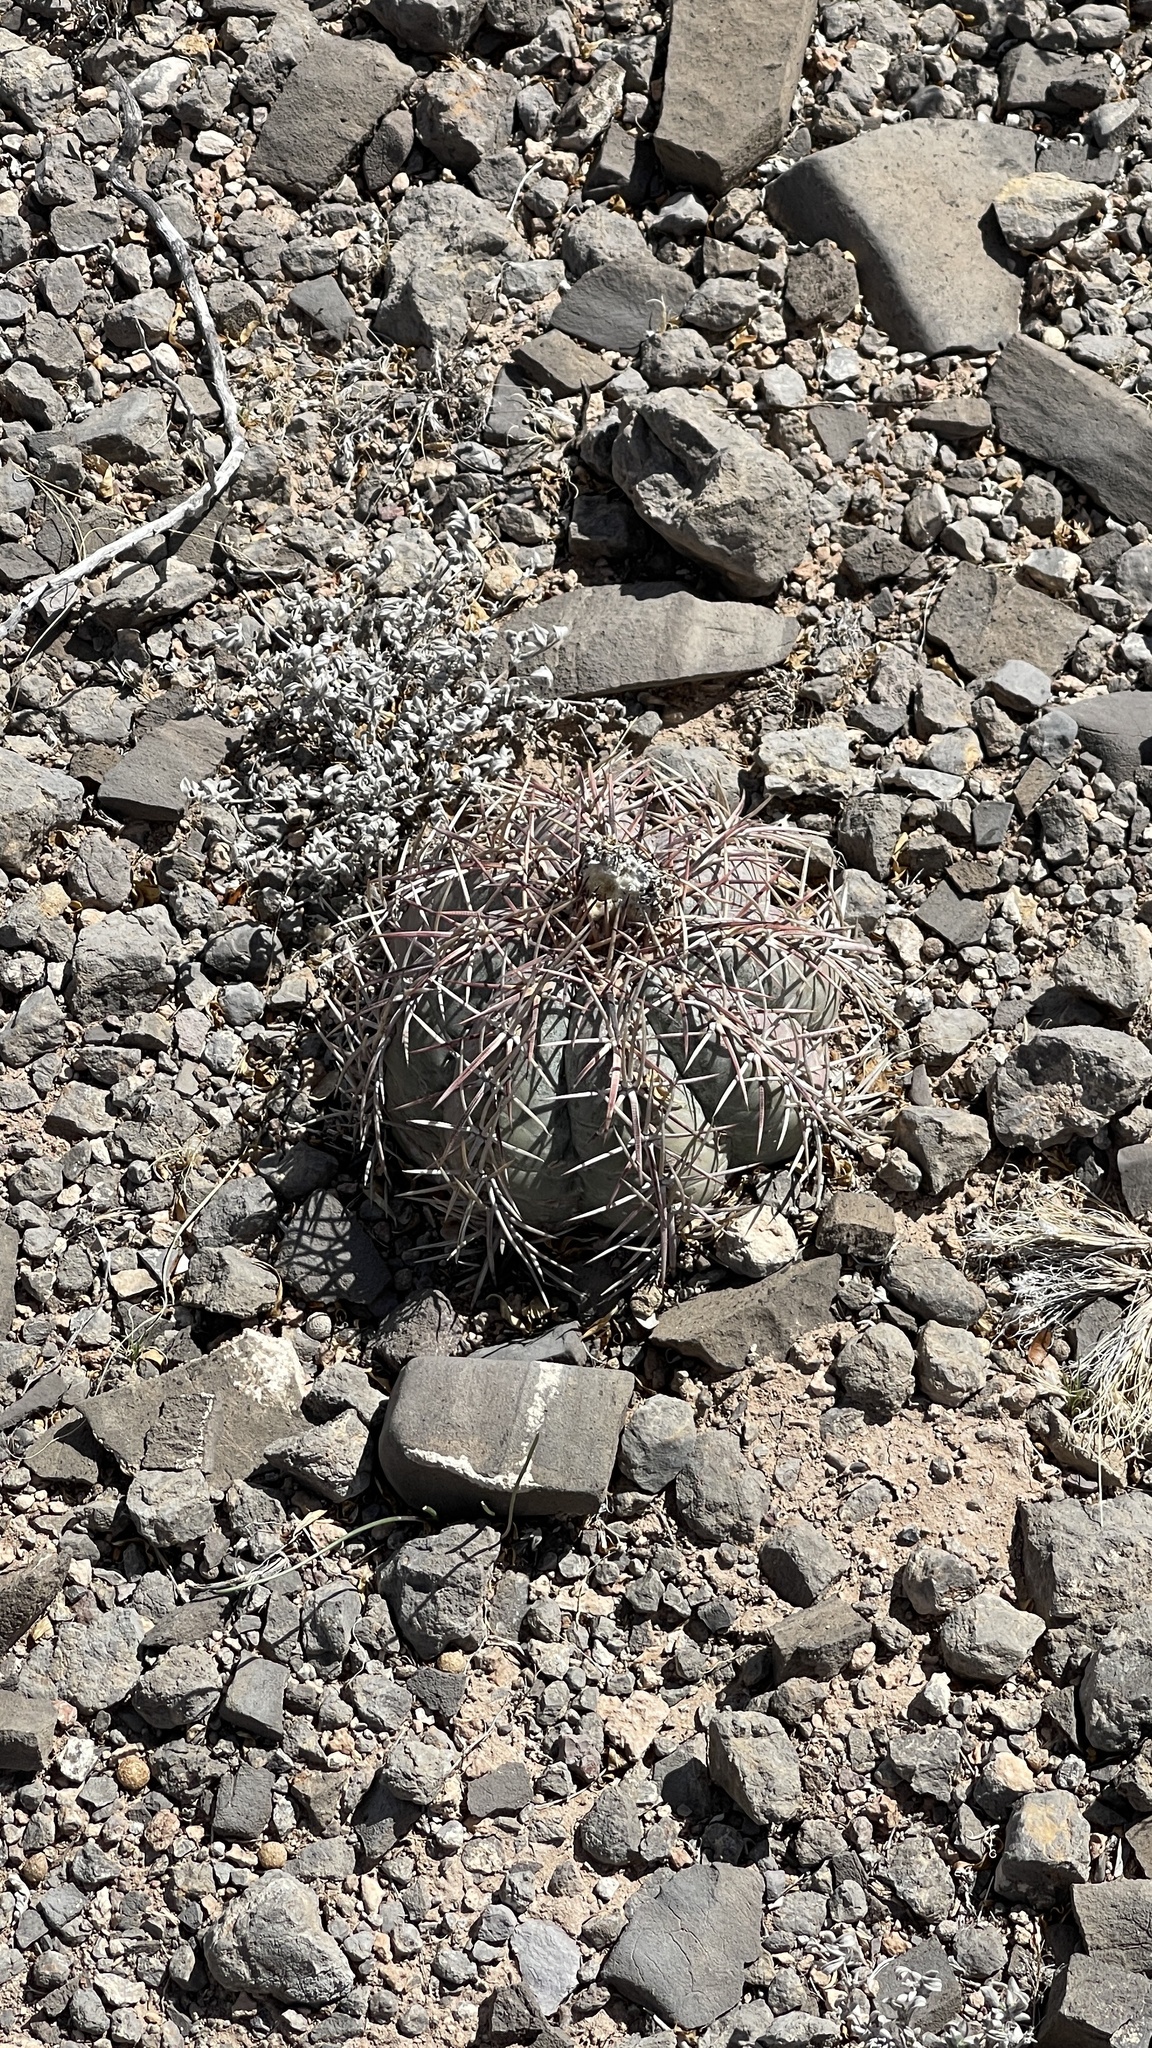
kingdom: Plantae
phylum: Tracheophyta
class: Magnoliopsida
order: Caryophyllales
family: Cactaceae
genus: Echinocactus
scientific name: Echinocactus horizonthalonius
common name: Devilshead
